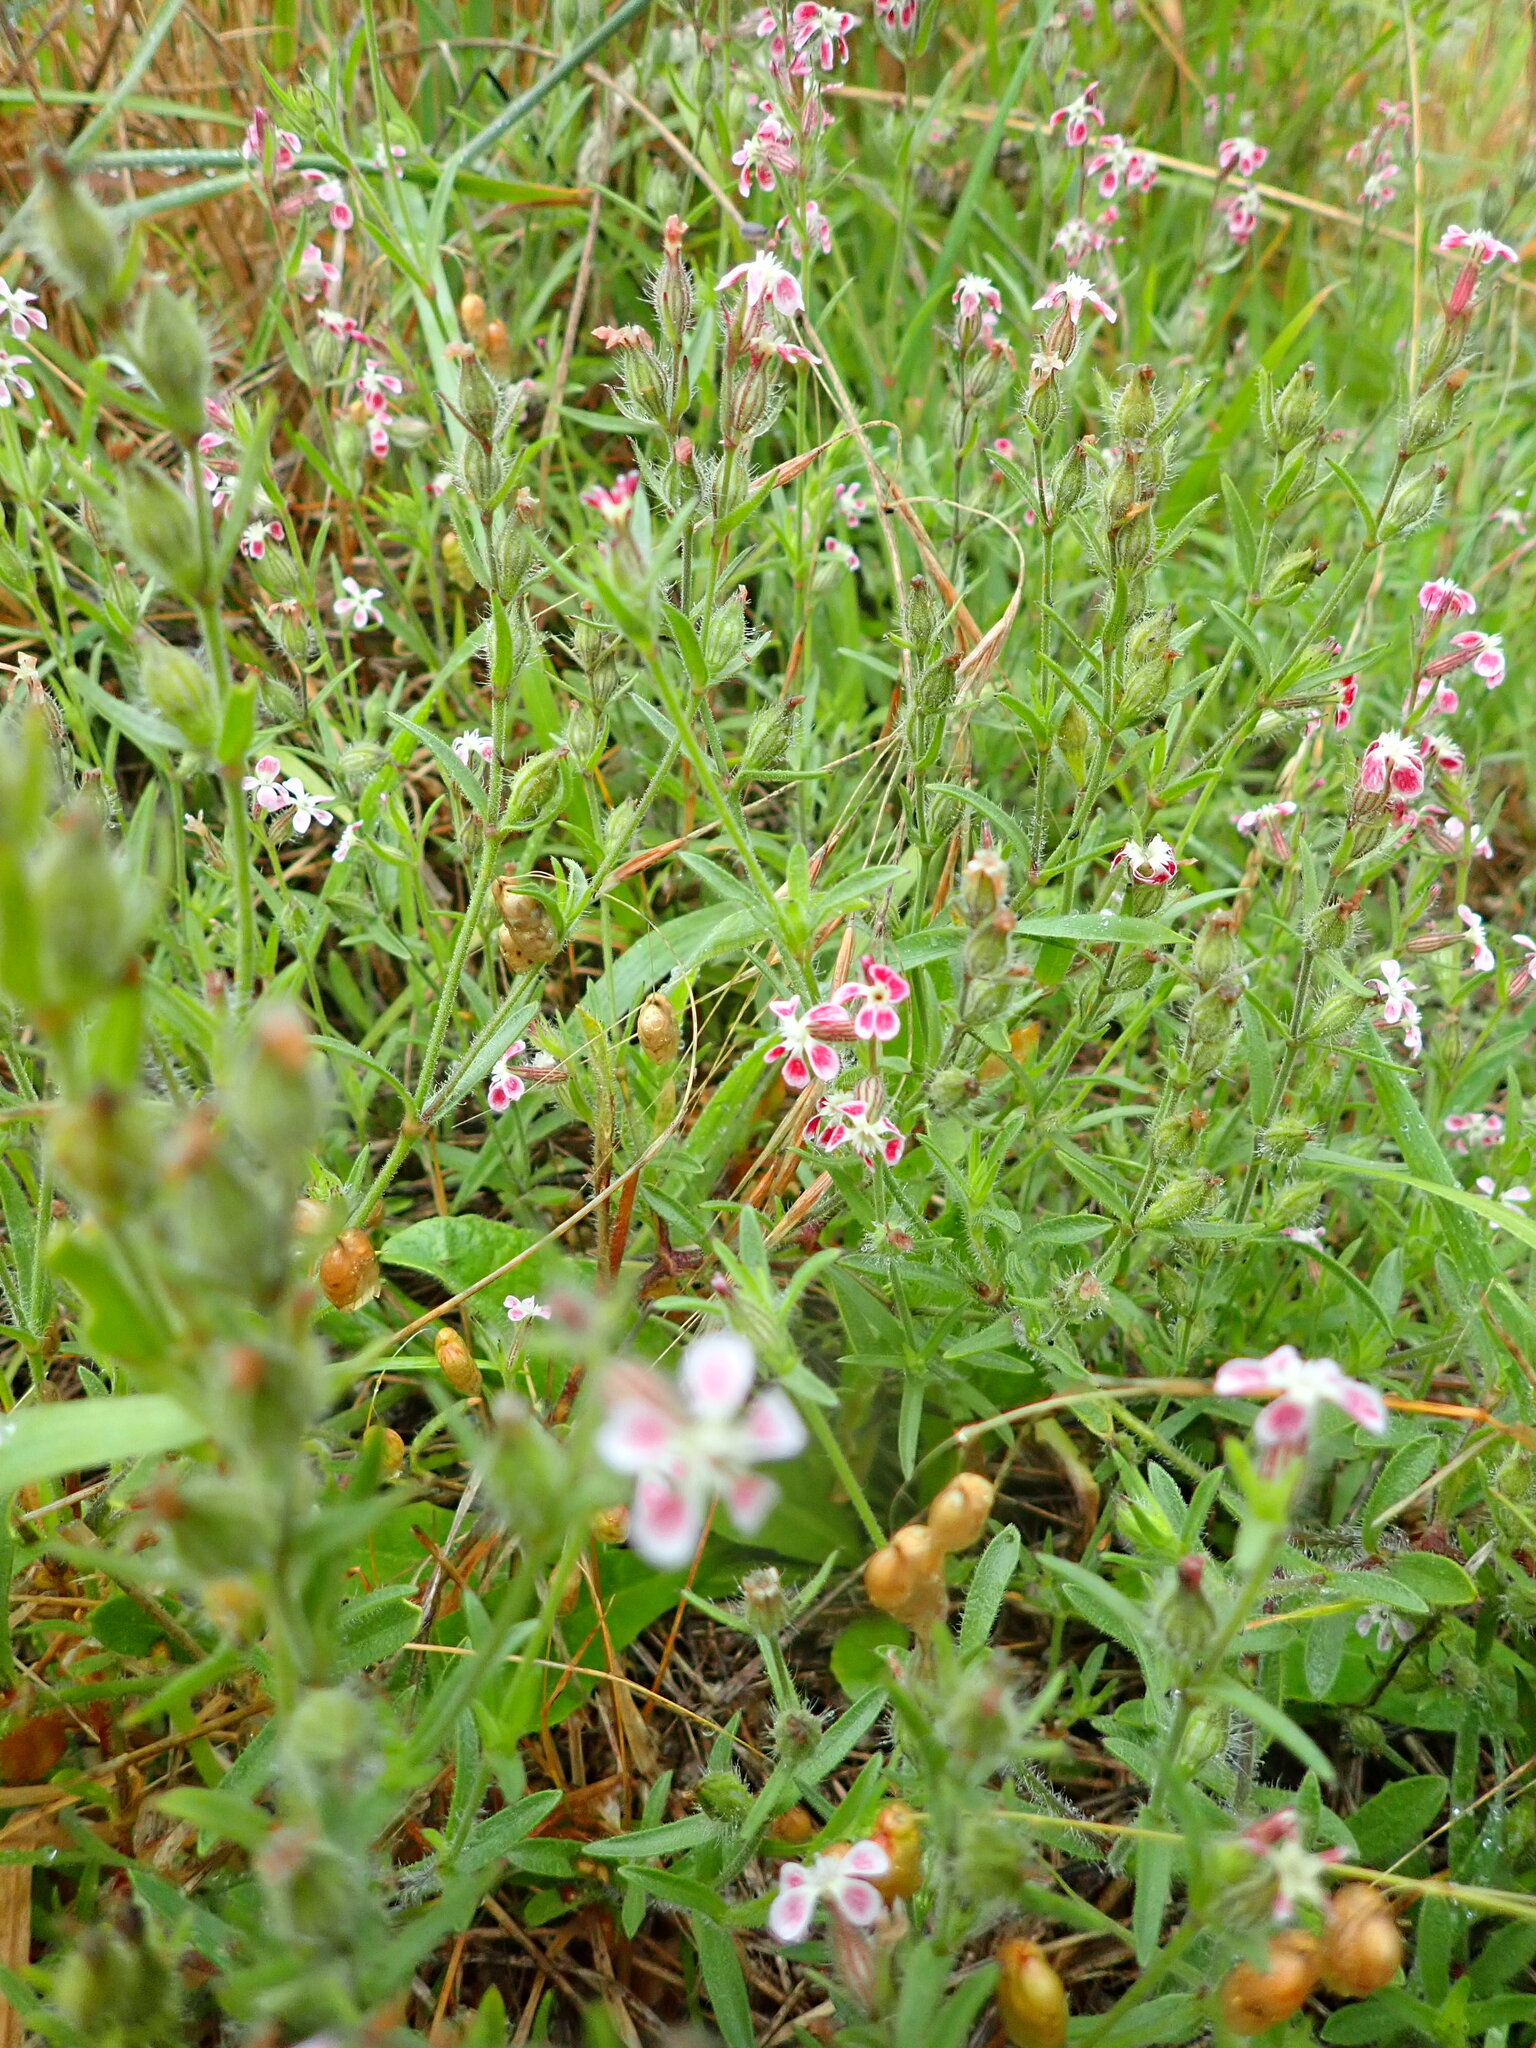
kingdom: Plantae
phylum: Tracheophyta
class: Magnoliopsida
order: Caryophyllales
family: Caryophyllaceae
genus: Silene
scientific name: Silene gallica
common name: Small-flowered catchfly
